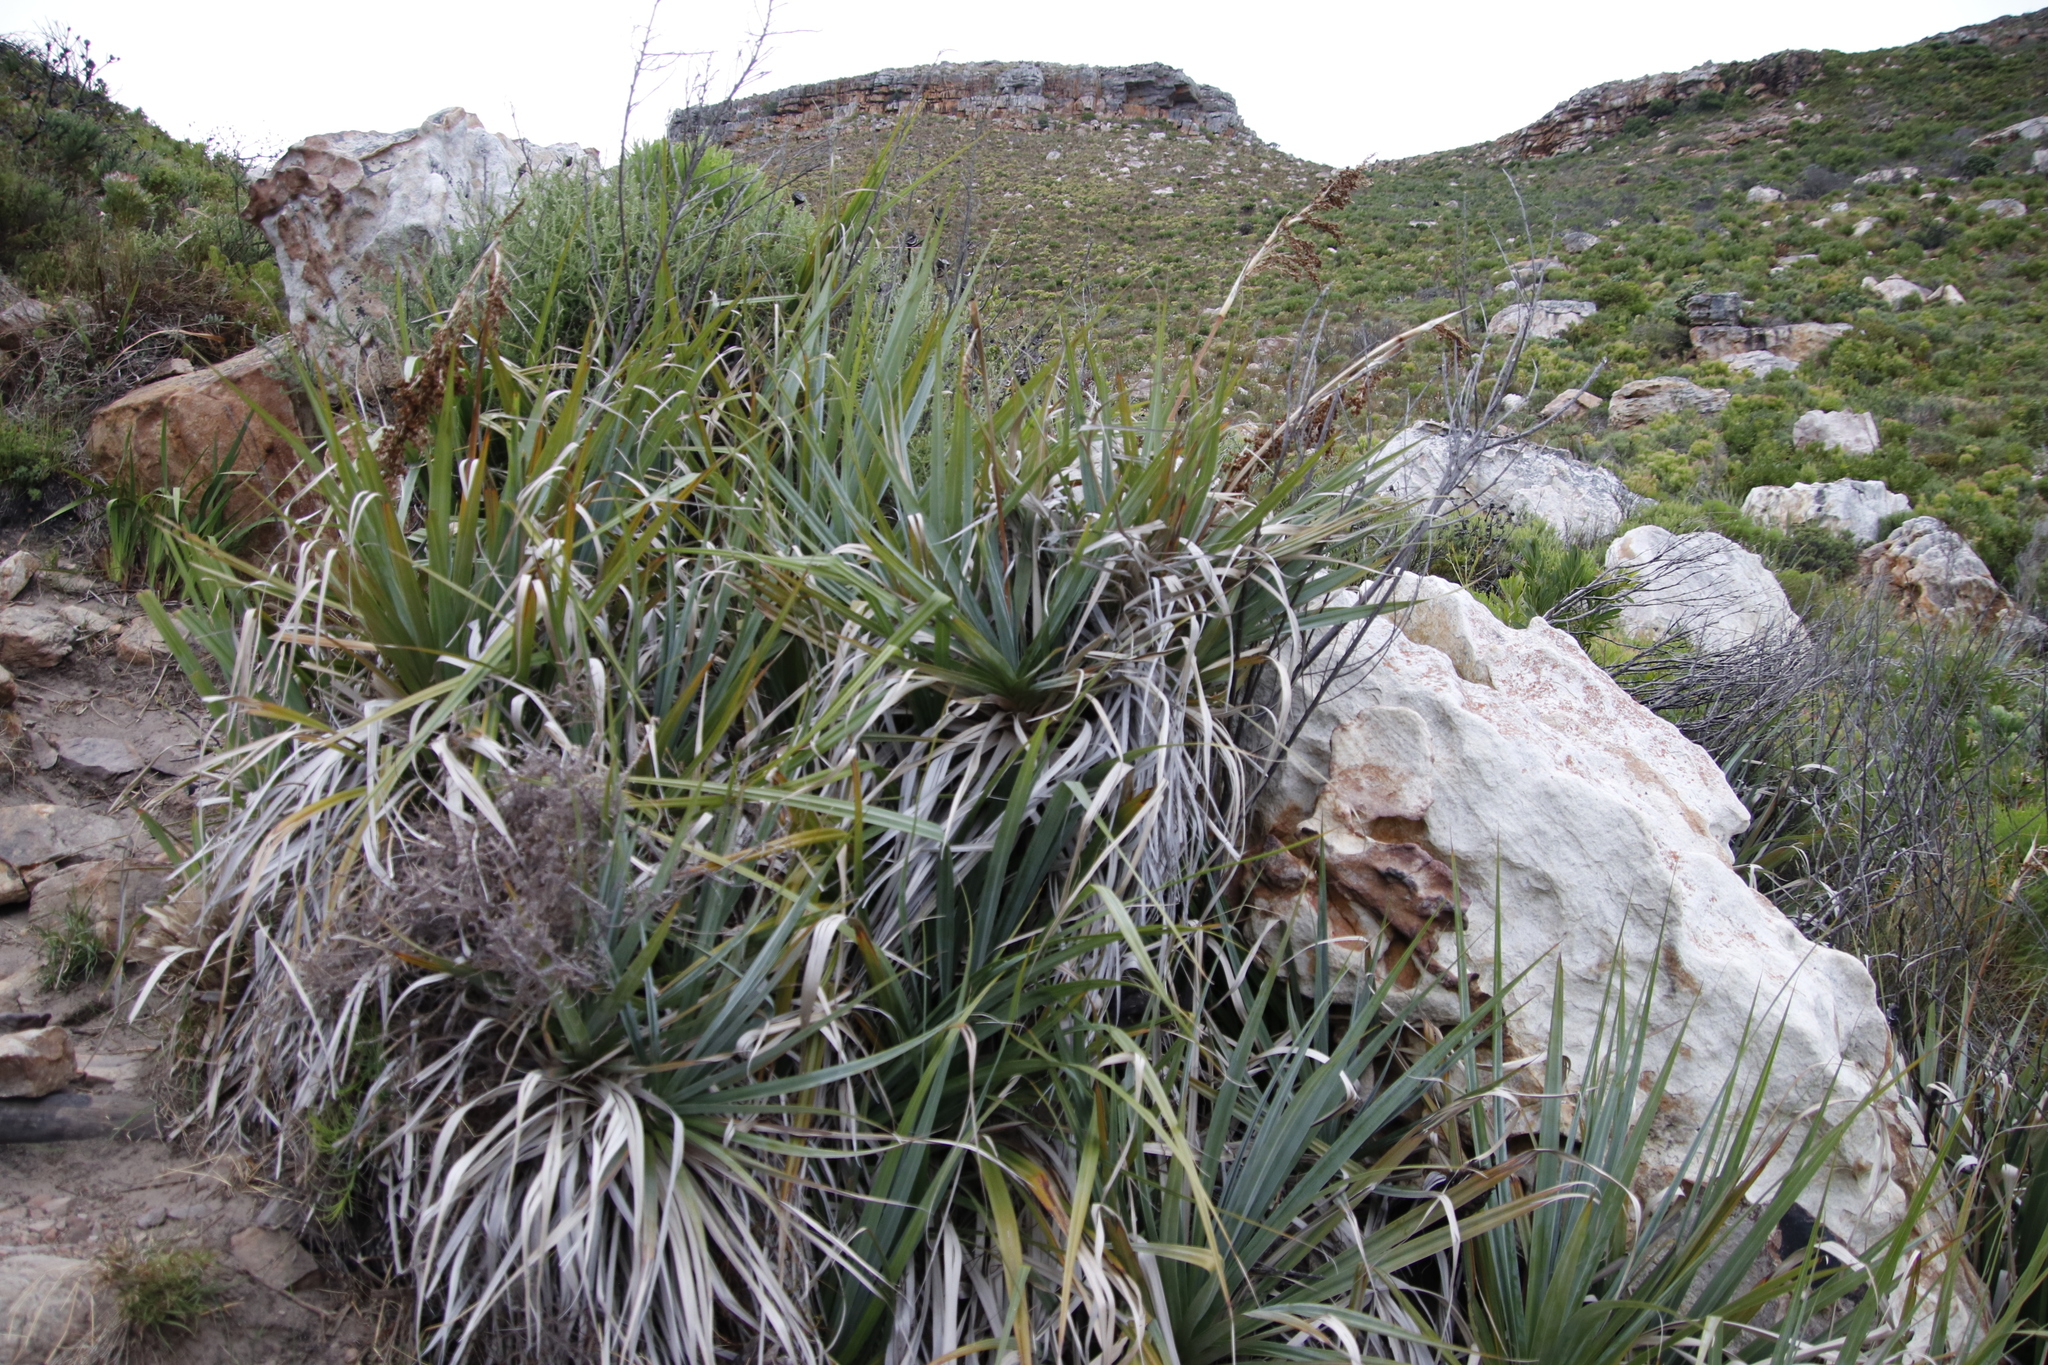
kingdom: Plantae
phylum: Tracheophyta
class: Liliopsida
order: Poales
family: Thurniaceae
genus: Prionium
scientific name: Prionium serratum
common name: Palmiet
